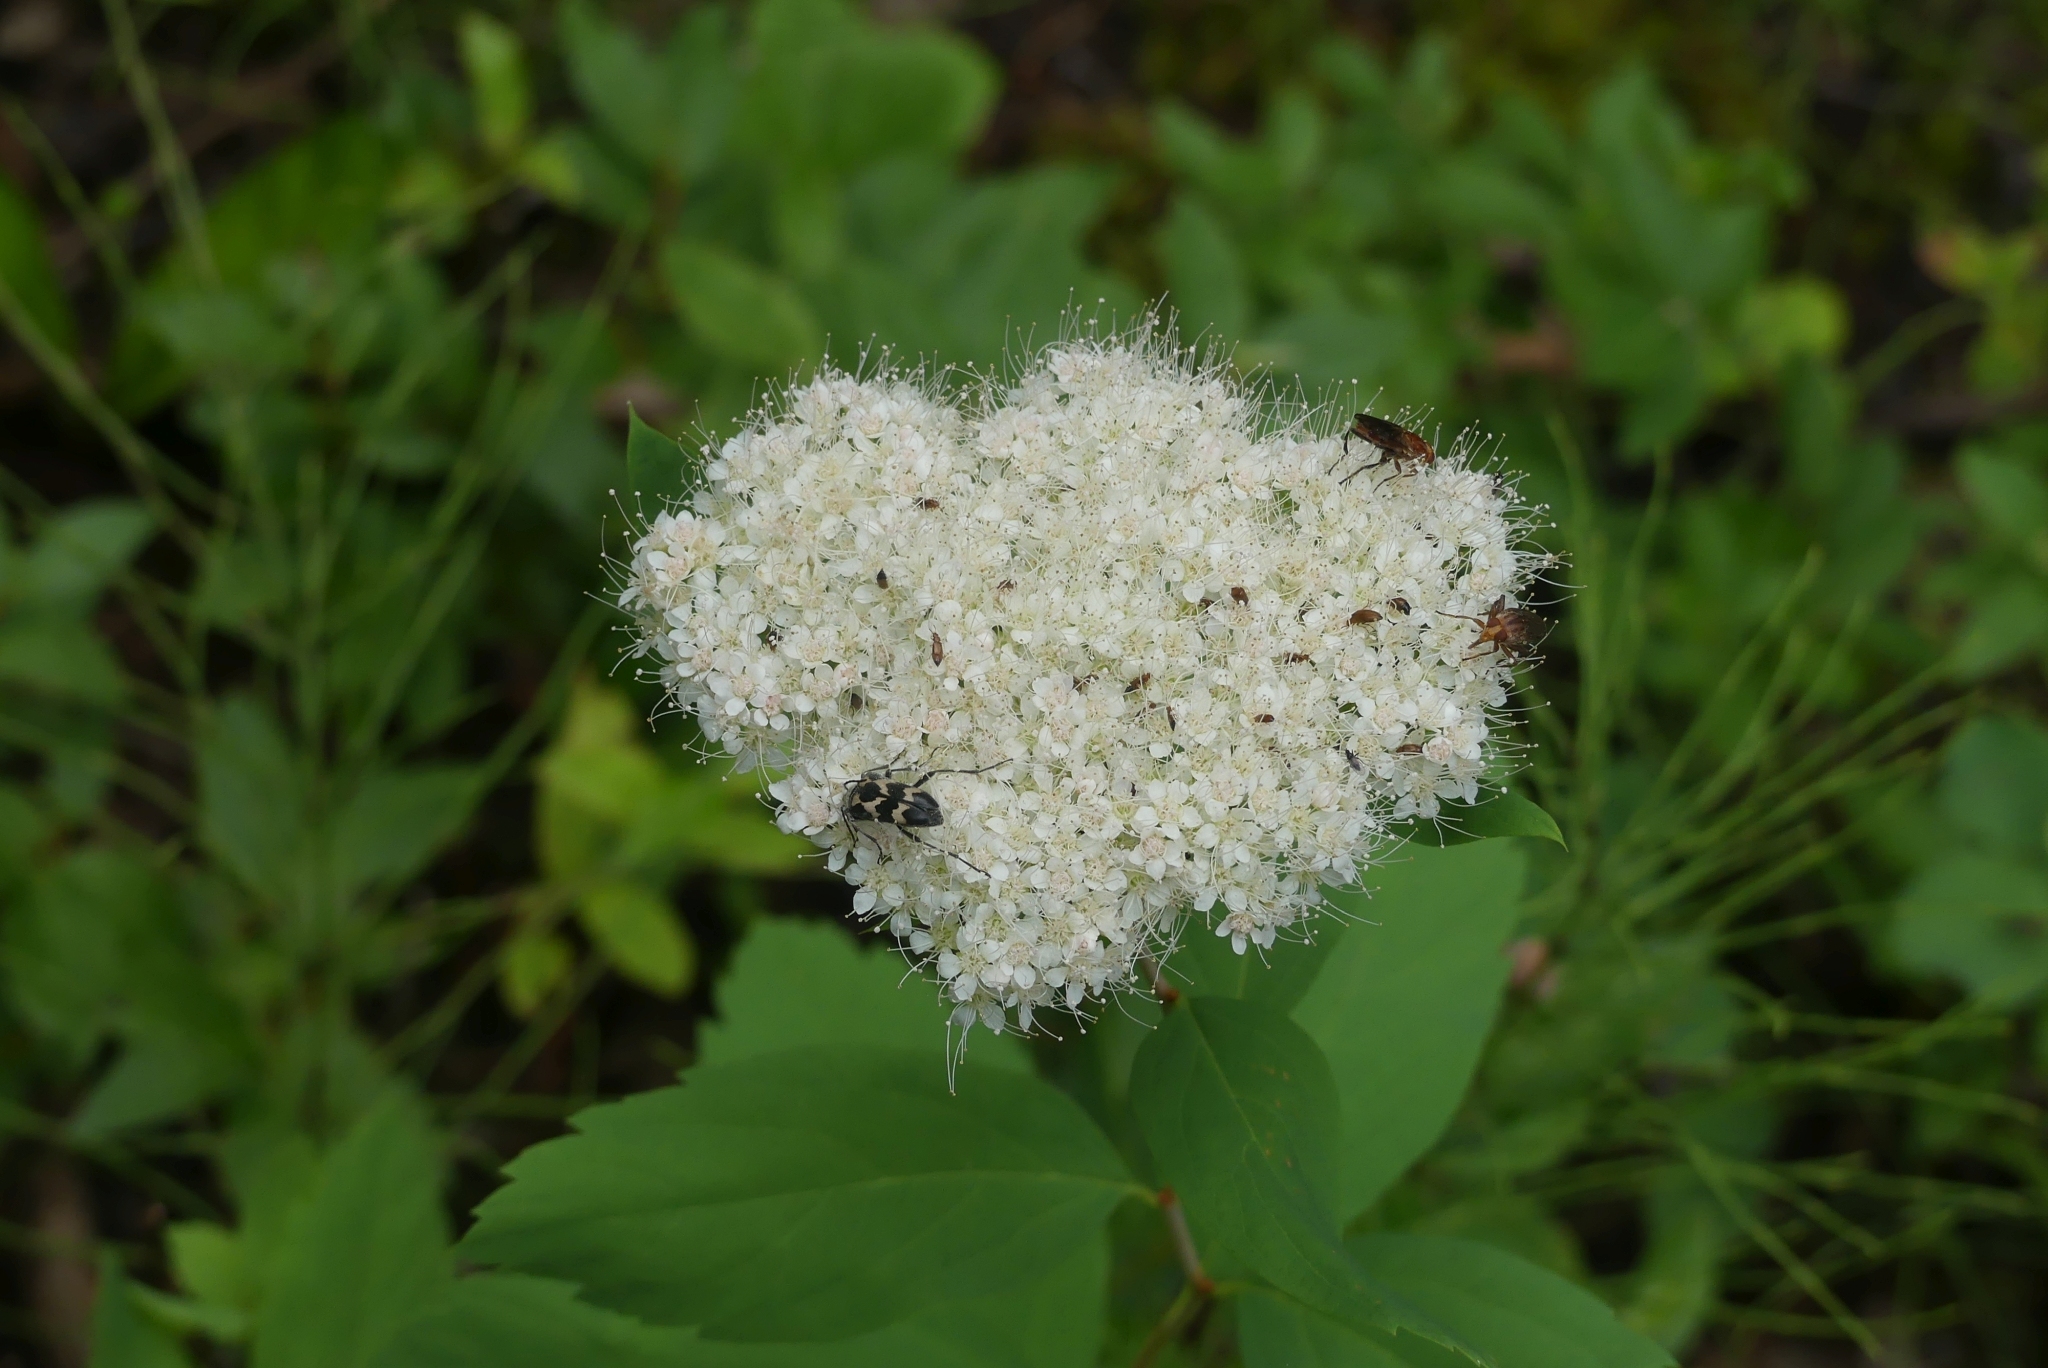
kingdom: Animalia
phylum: Arthropoda
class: Insecta
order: Coleoptera
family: Cerambycidae
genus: Judolia
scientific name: Judolia montivagans
